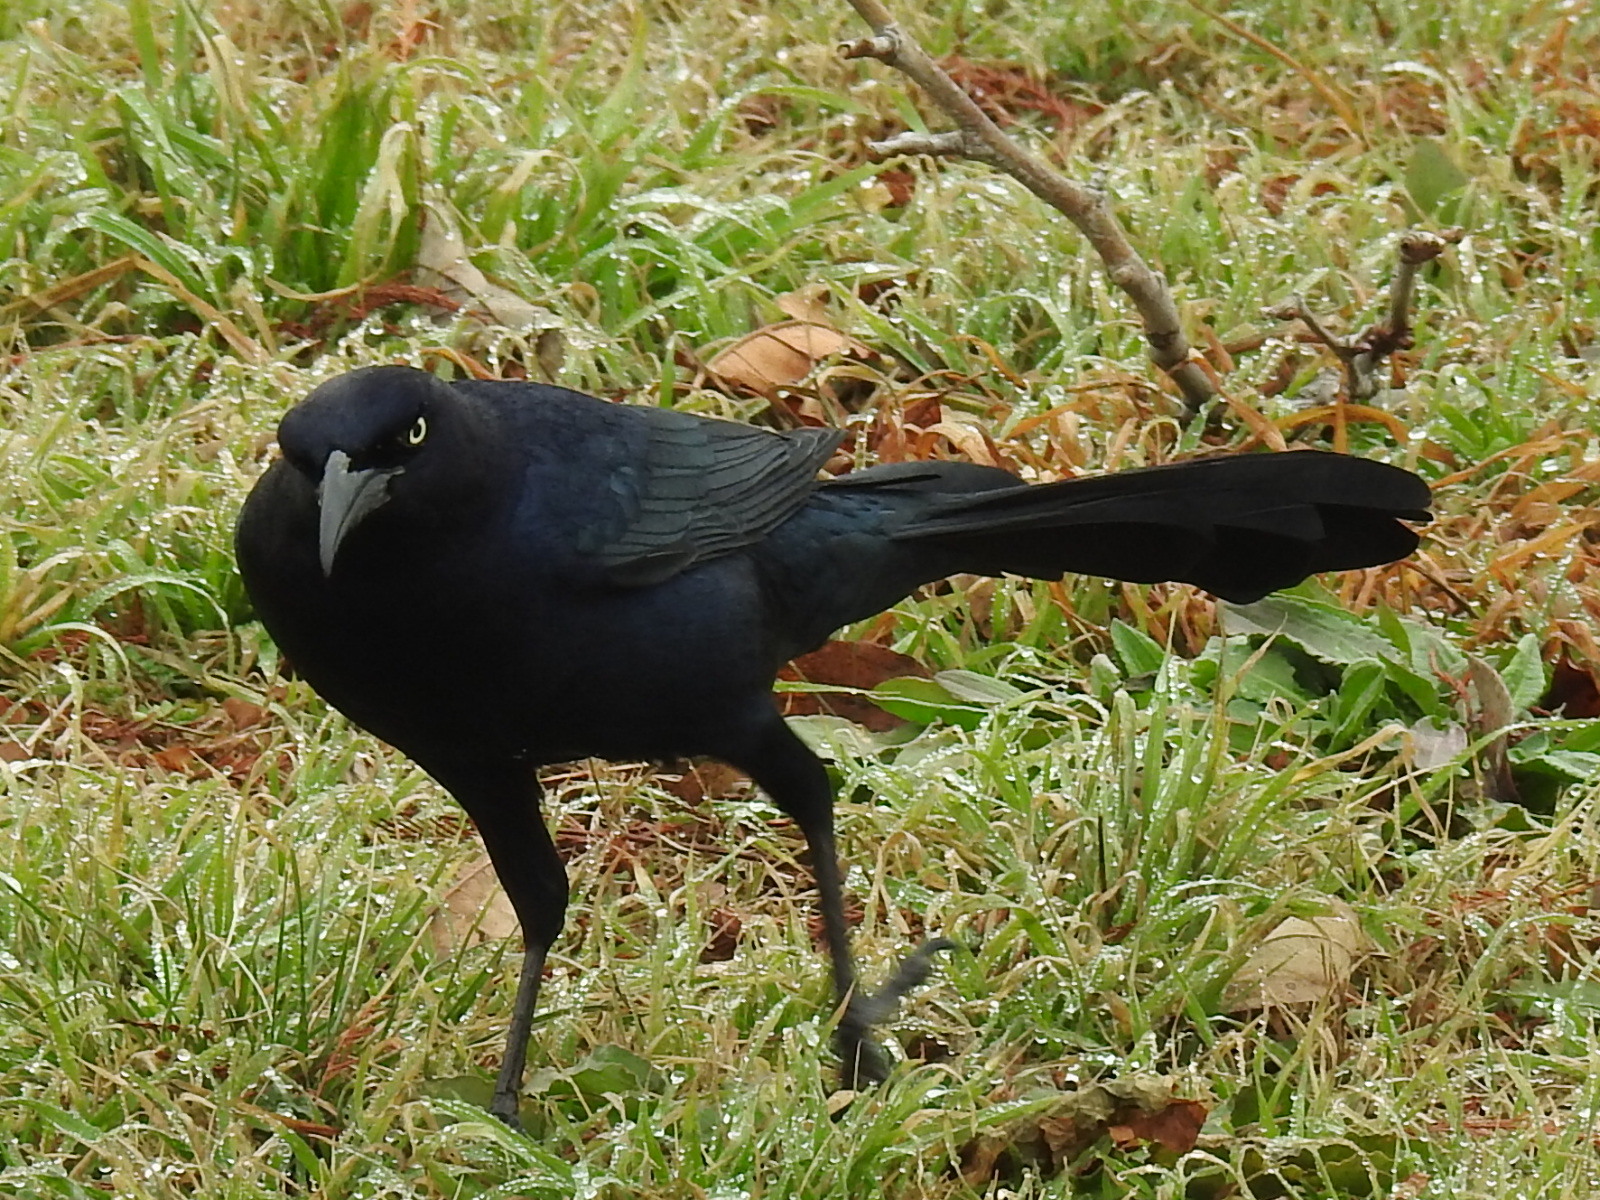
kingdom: Animalia
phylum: Chordata
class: Aves
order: Passeriformes
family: Icteridae
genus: Quiscalus
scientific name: Quiscalus mexicanus
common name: Great-tailed grackle
